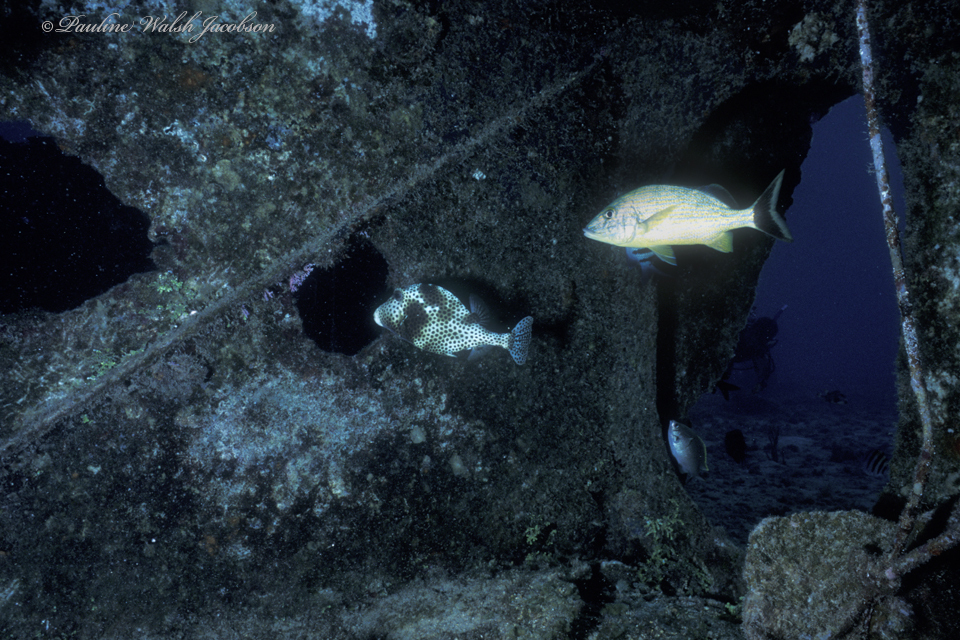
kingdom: Animalia
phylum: Chordata
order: Tetraodontiformes
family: Ostraciidae
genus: Lactophrys
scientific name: Lactophrys bicaudalis
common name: Spotted trunkfish
